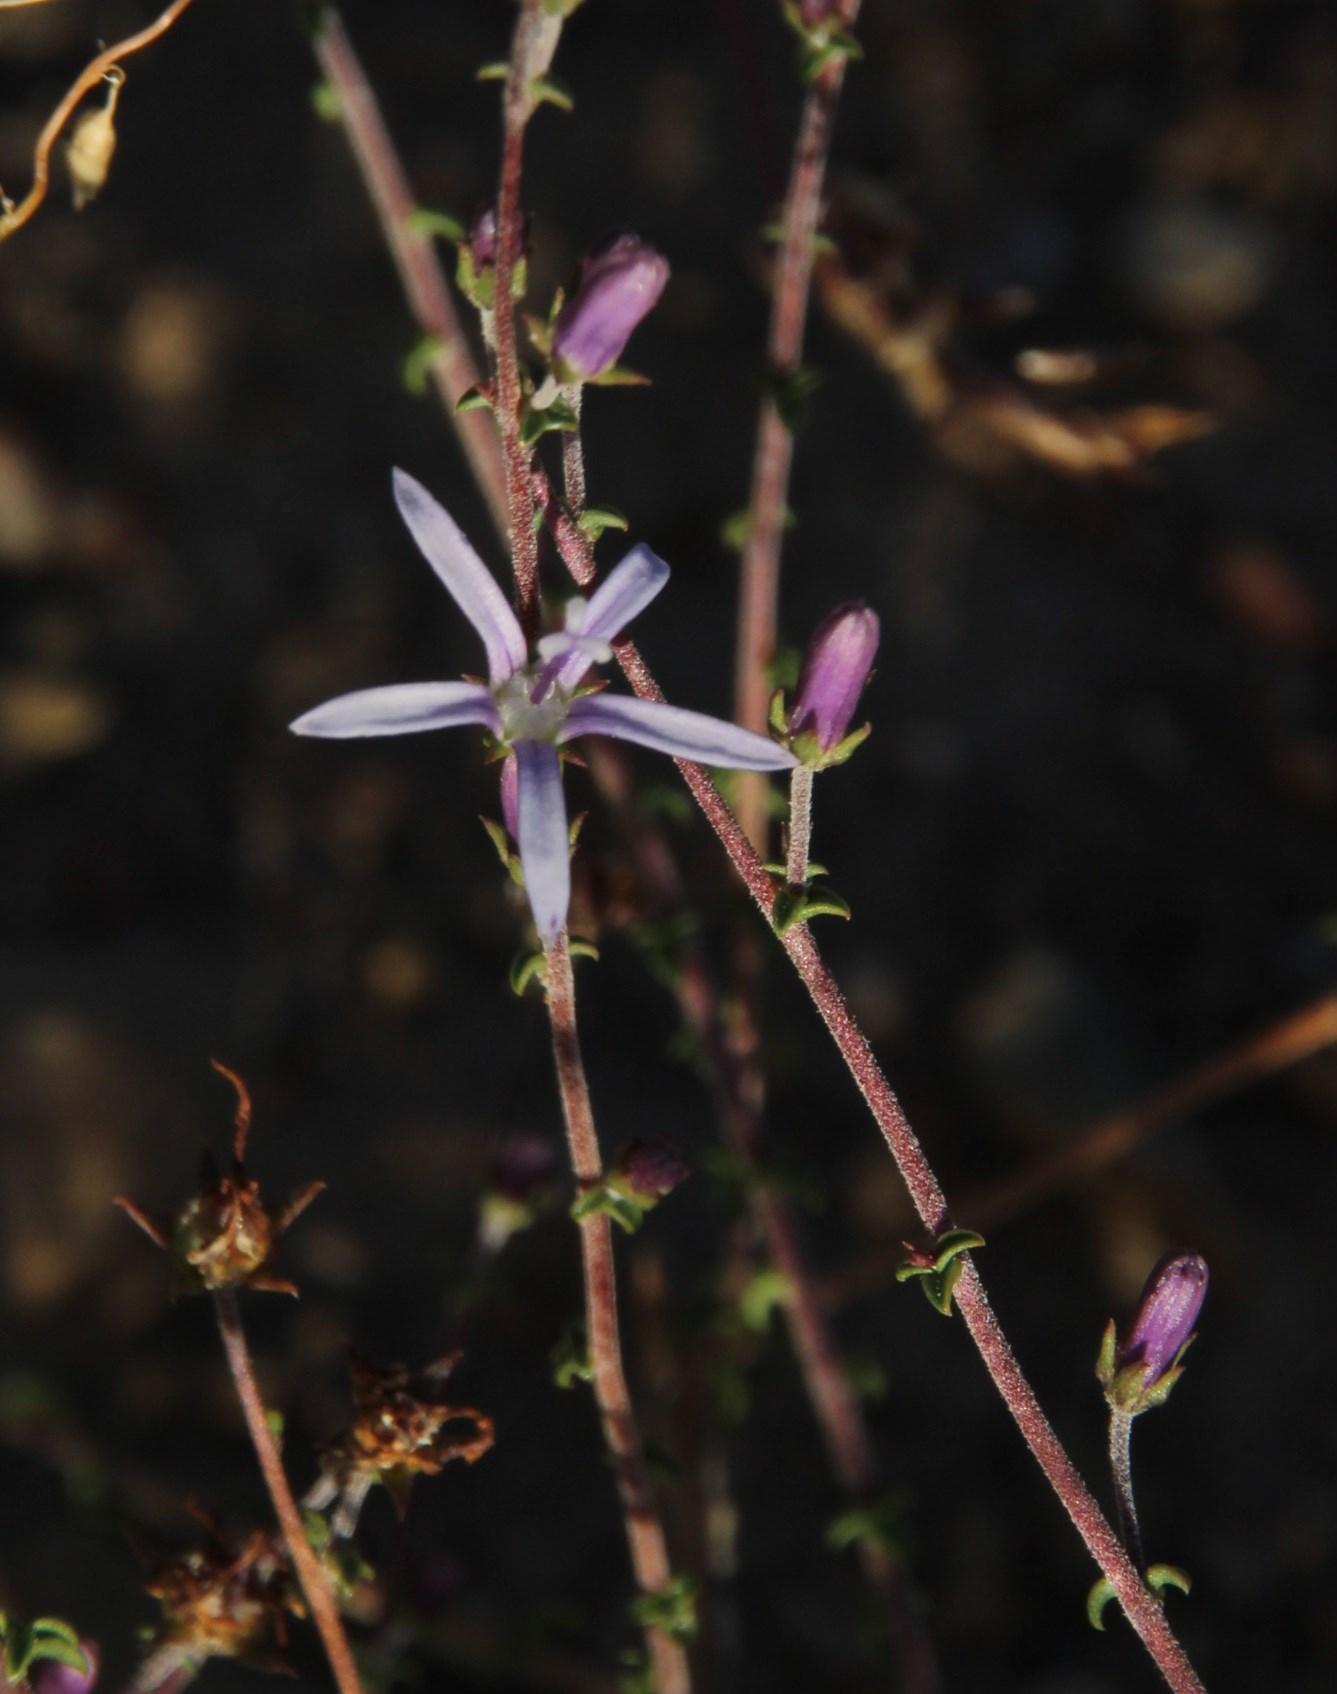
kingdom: Plantae
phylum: Tracheophyta
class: Magnoliopsida
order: Asterales
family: Campanulaceae
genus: Wahlenbergia
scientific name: Wahlenbergia loddigesii
